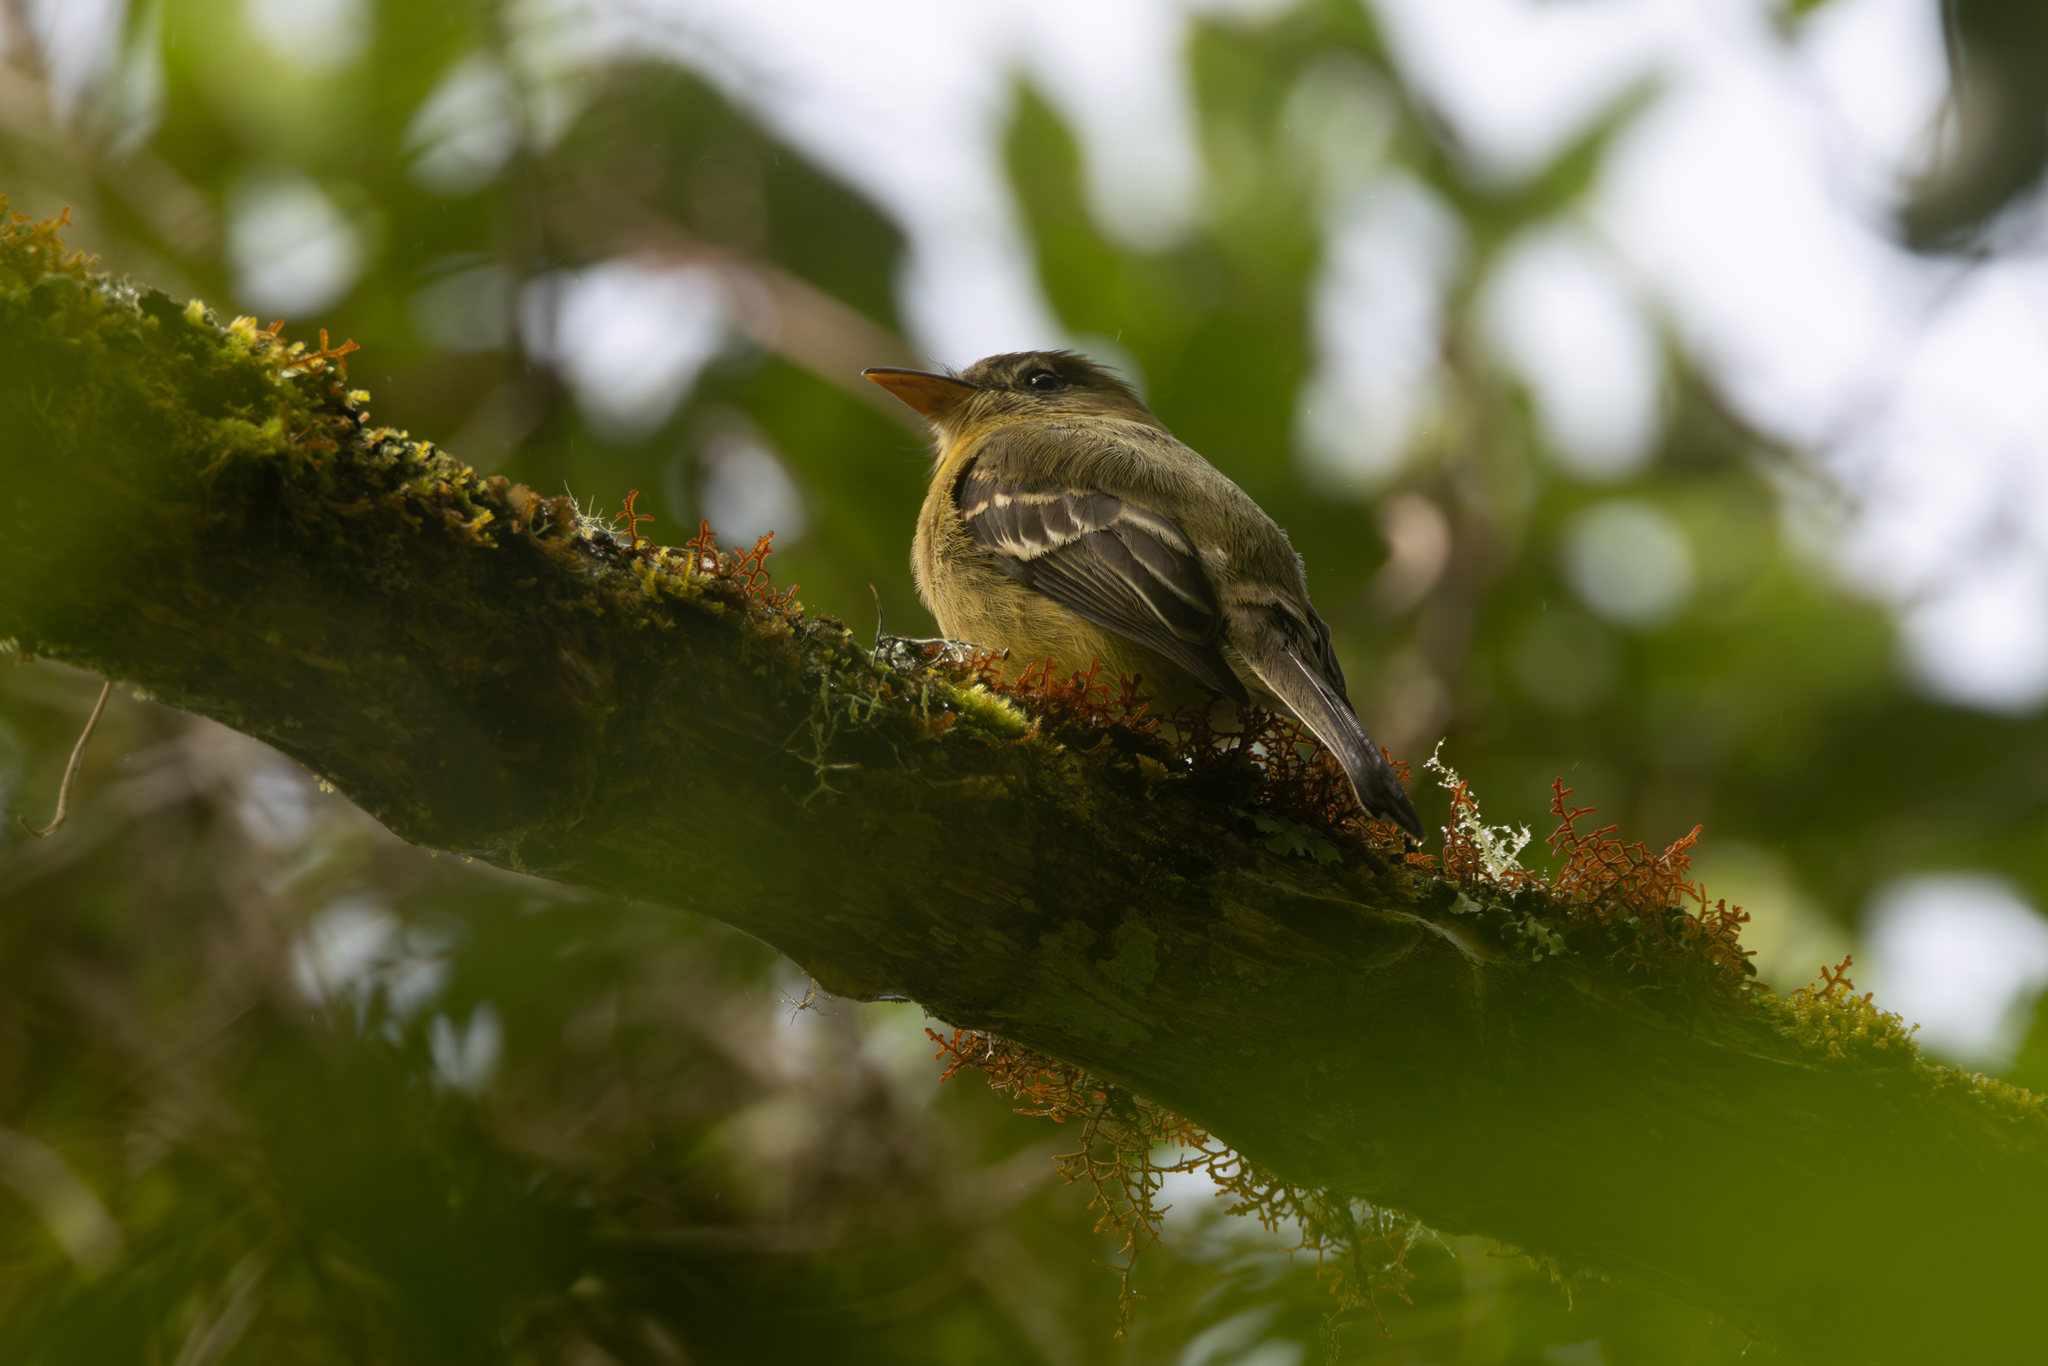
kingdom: Animalia
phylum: Chordata
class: Aves
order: Passeriformes
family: Tyrannidae
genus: Contopus
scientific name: Contopus ochraceus
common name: Ochraceous pewee
